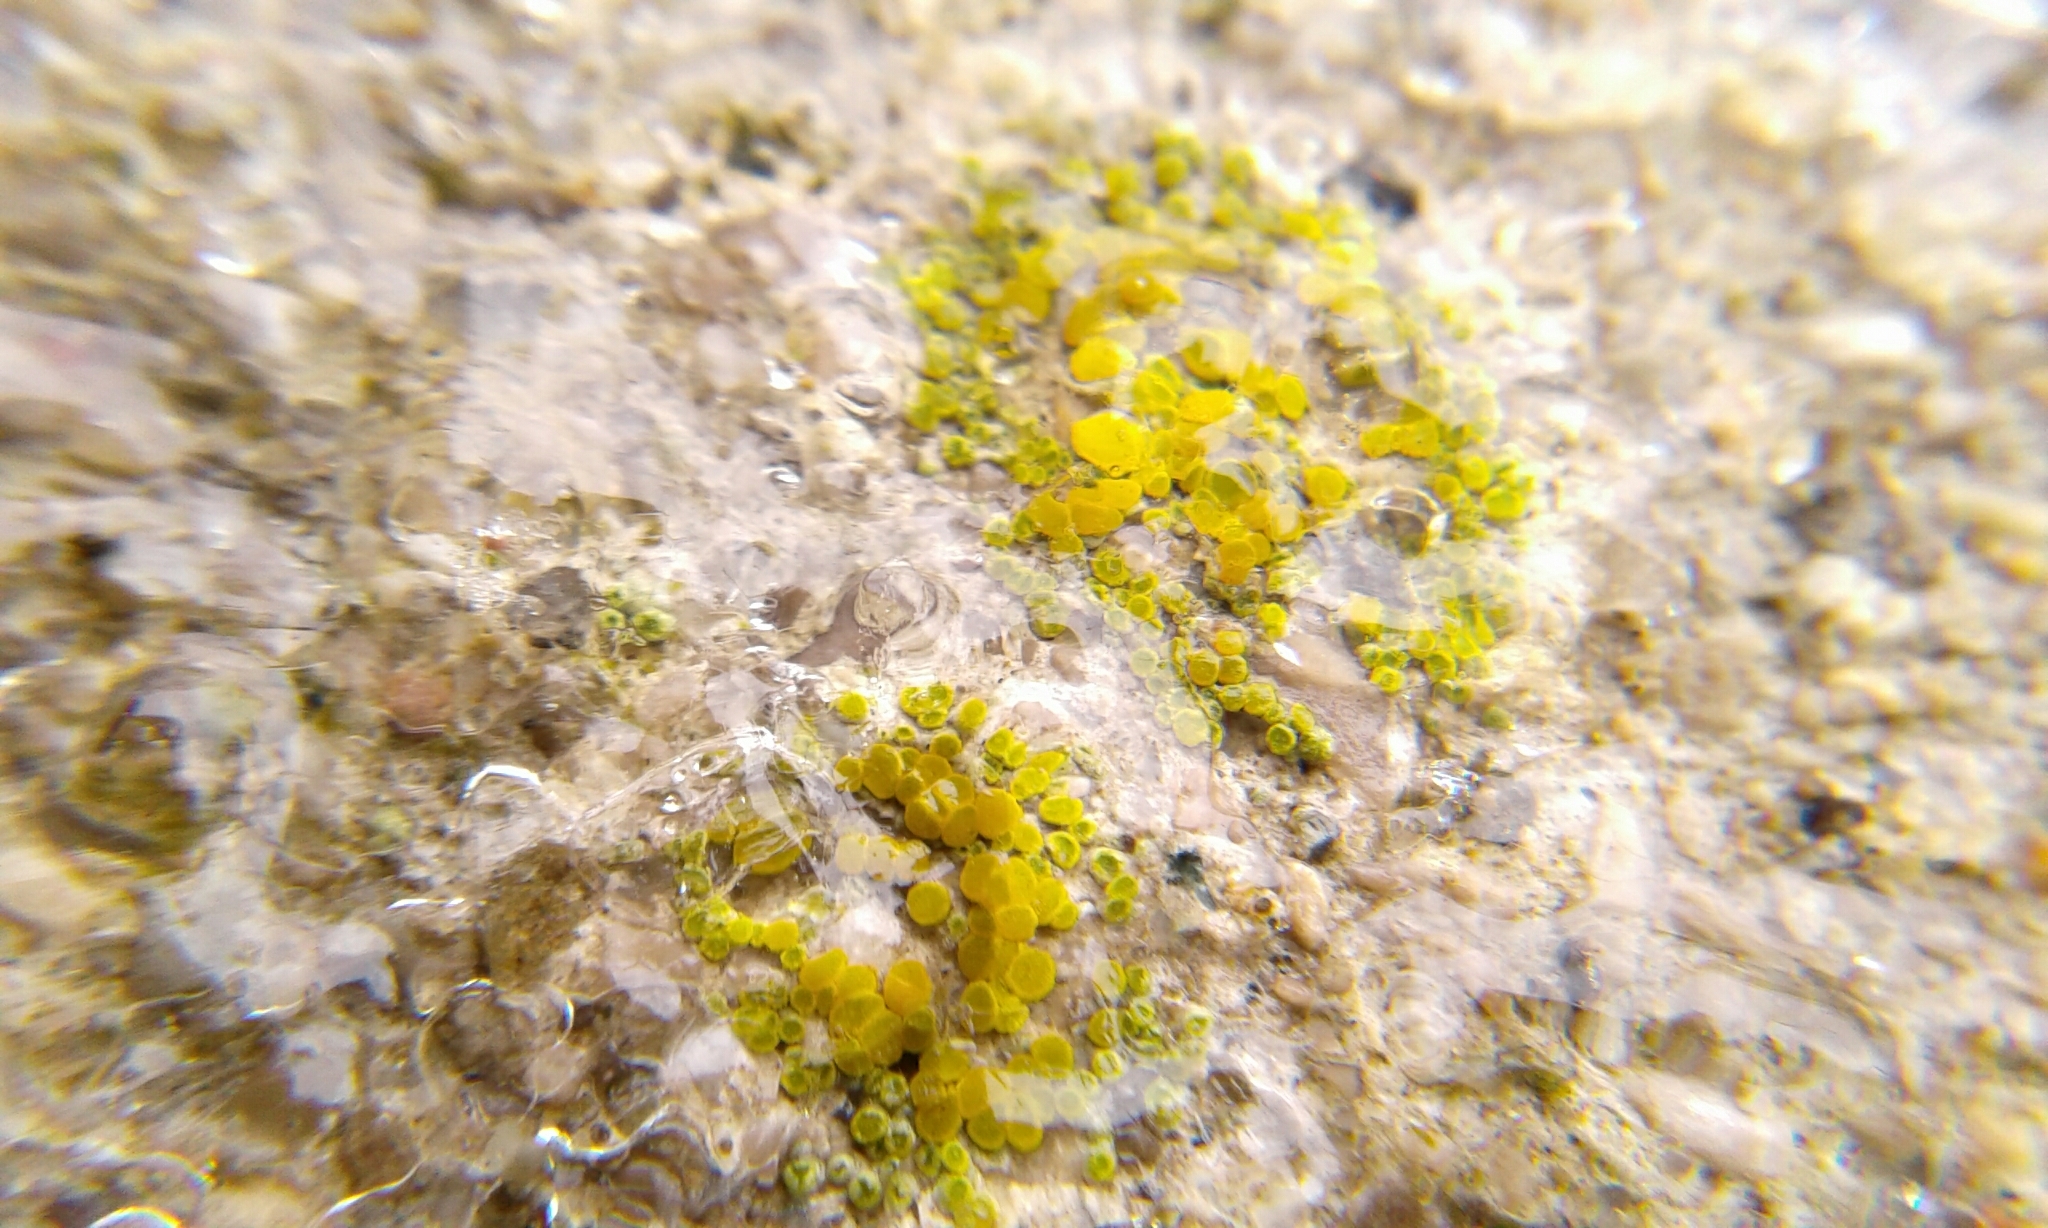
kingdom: Fungi
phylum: Ascomycota
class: Candelariomycetes
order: Candelariales
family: Candelariaceae
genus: Candelariella
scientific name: Candelariella aurella
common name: Hidden goldspeck lichen
